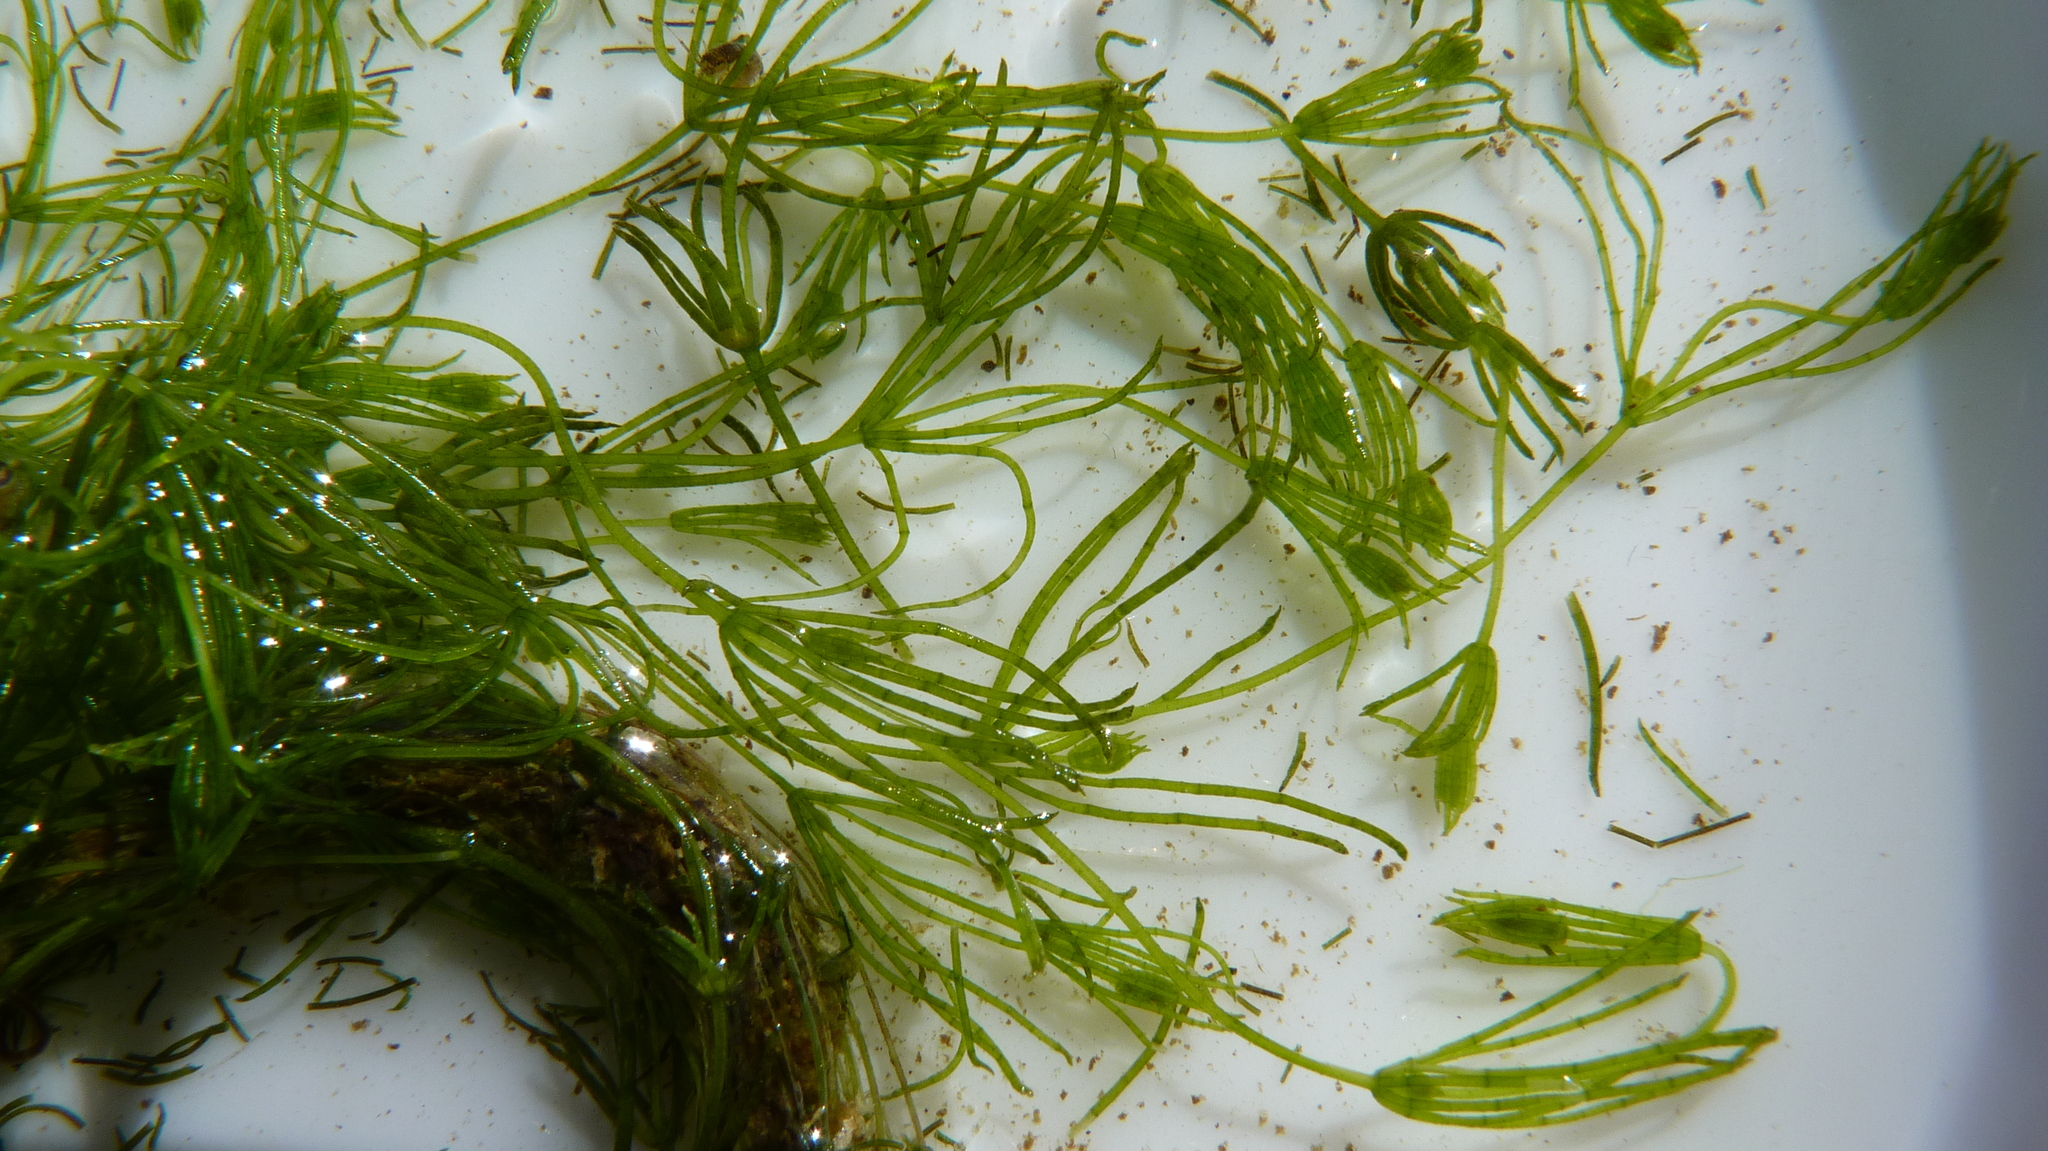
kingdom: Plantae
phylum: Charophyta
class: Charophyceae
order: Charales
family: Characeae
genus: Chara
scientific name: Chara
